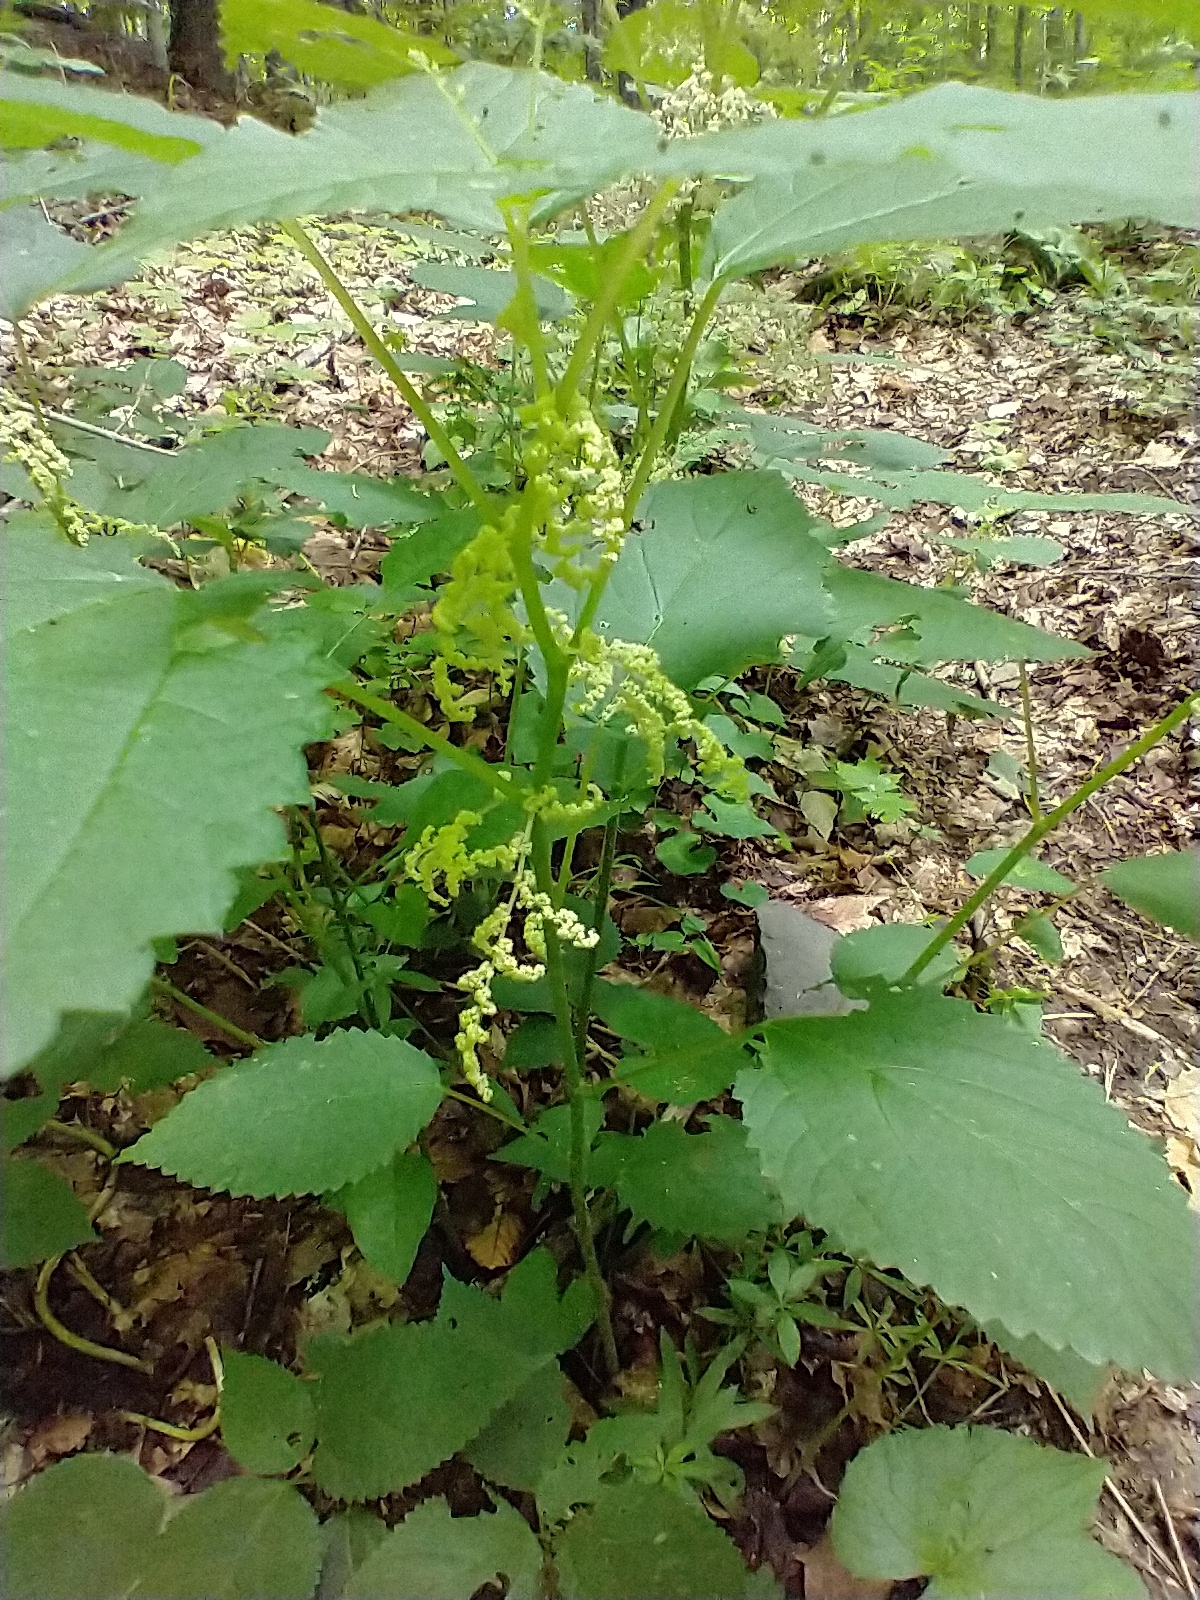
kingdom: Plantae
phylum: Tracheophyta
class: Magnoliopsida
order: Rosales
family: Urticaceae
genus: Laportea
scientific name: Laportea canadensis
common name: Canada nettle
